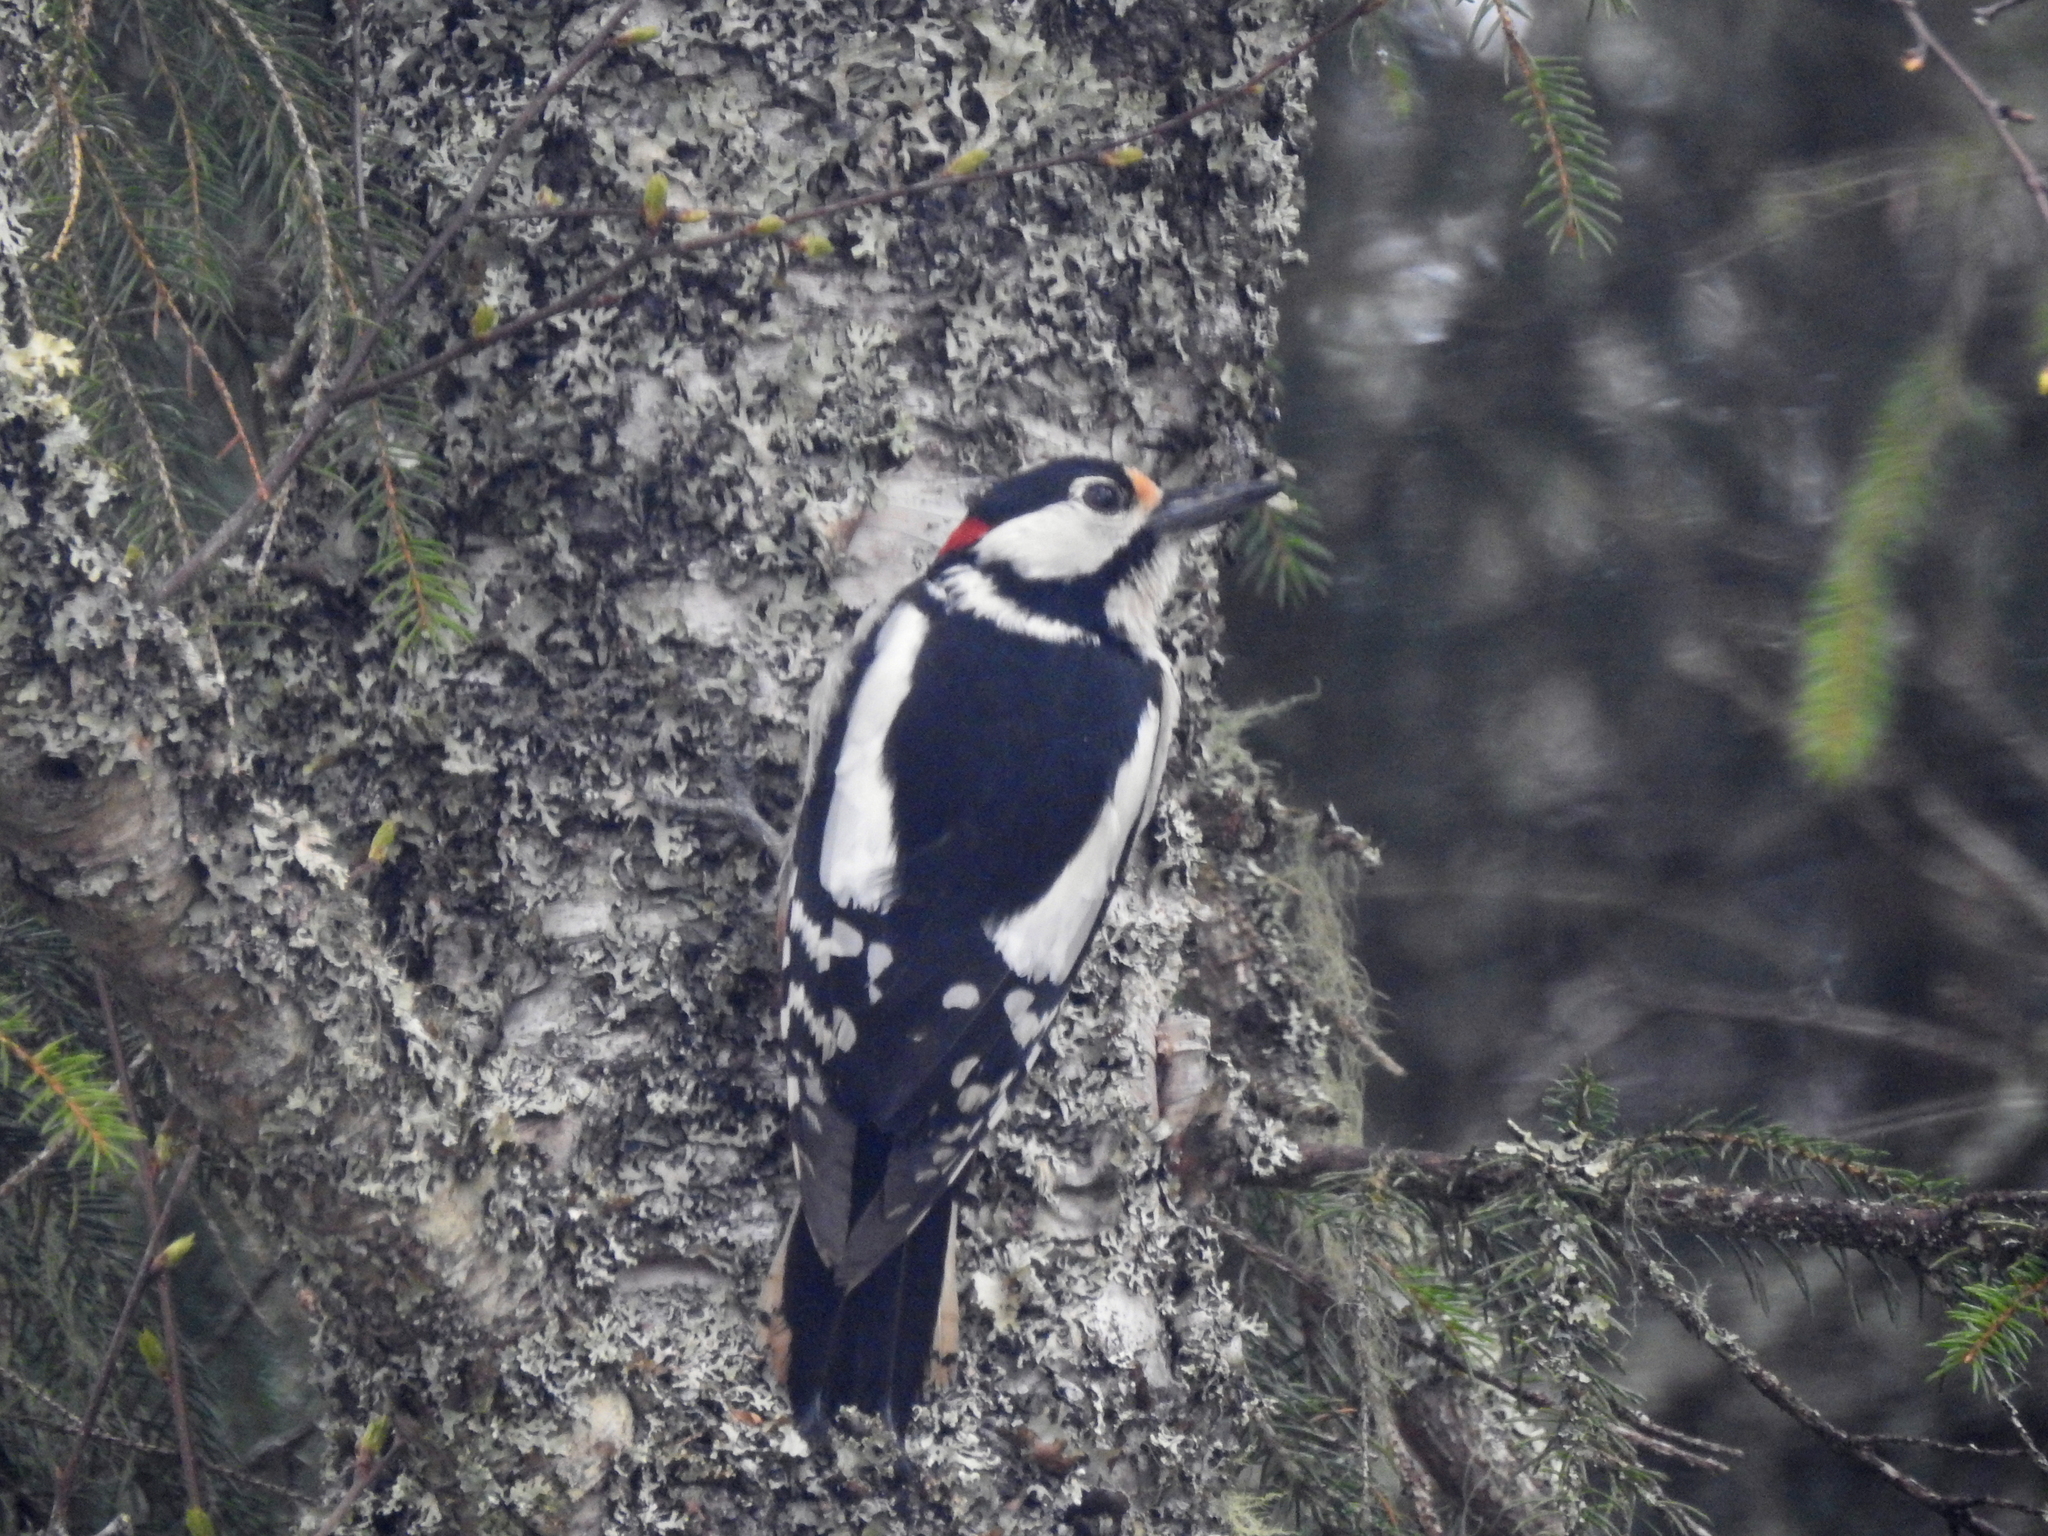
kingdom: Animalia
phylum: Chordata
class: Aves
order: Piciformes
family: Picidae
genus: Dendrocopos
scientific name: Dendrocopos major
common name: Great spotted woodpecker
